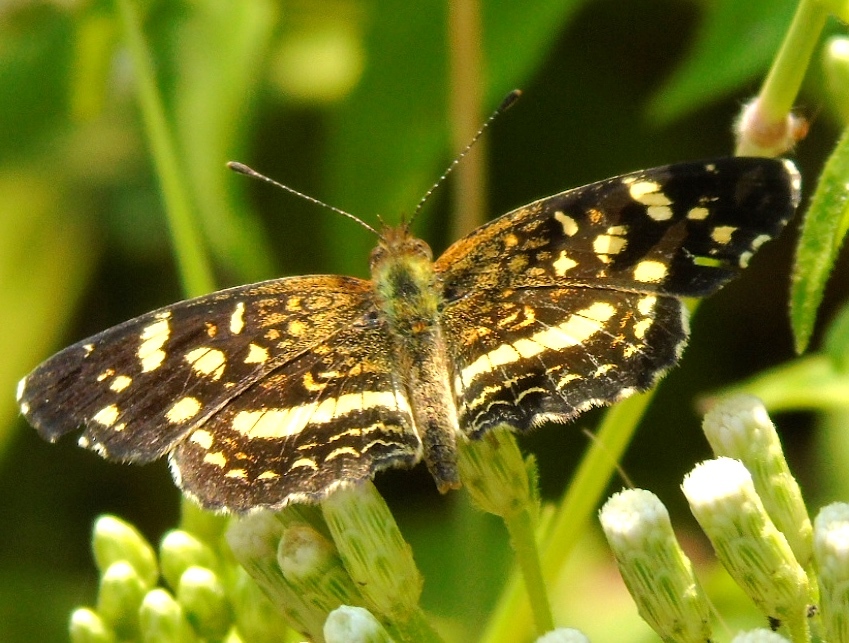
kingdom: Animalia
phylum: Arthropoda
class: Insecta
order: Lepidoptera
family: Nymphalidae
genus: Anthanassa
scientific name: Anthanassa tulcis
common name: Pale-banded crescent
